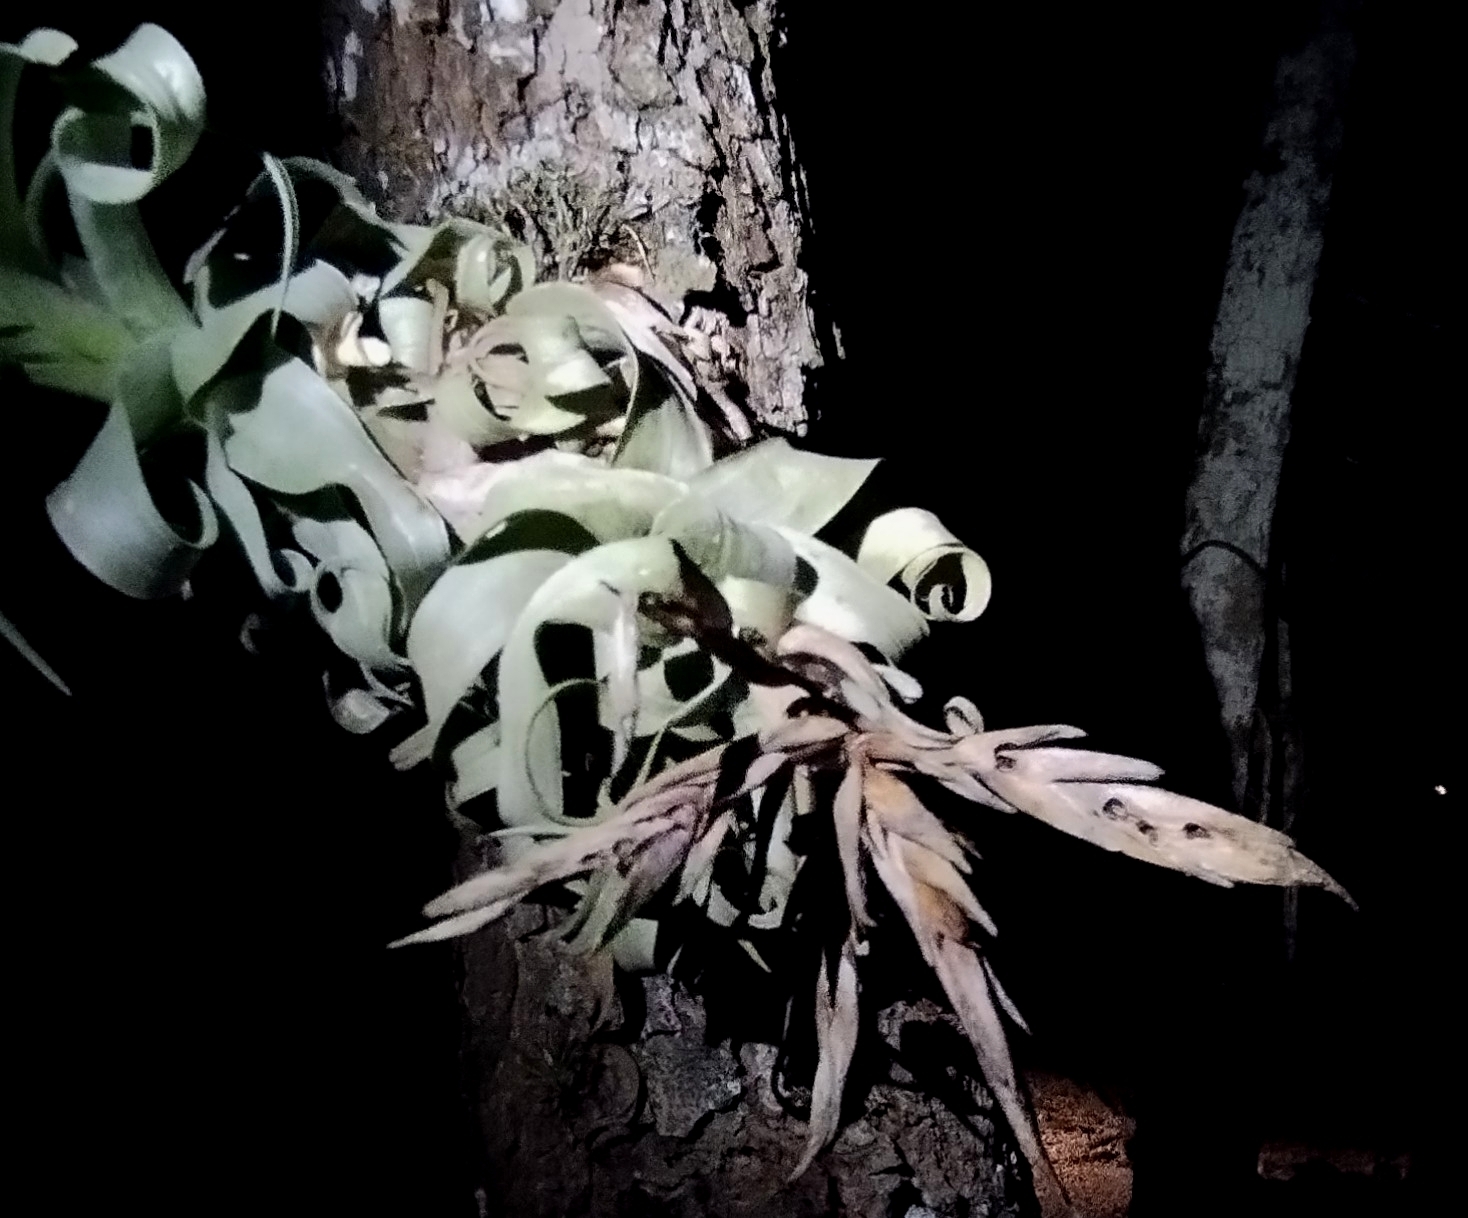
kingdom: Plantae
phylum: Tracheophyta
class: Liliopsida
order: Poales
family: Bromeliaceae
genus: Tillandsia
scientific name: Tillandsia streptophylla
